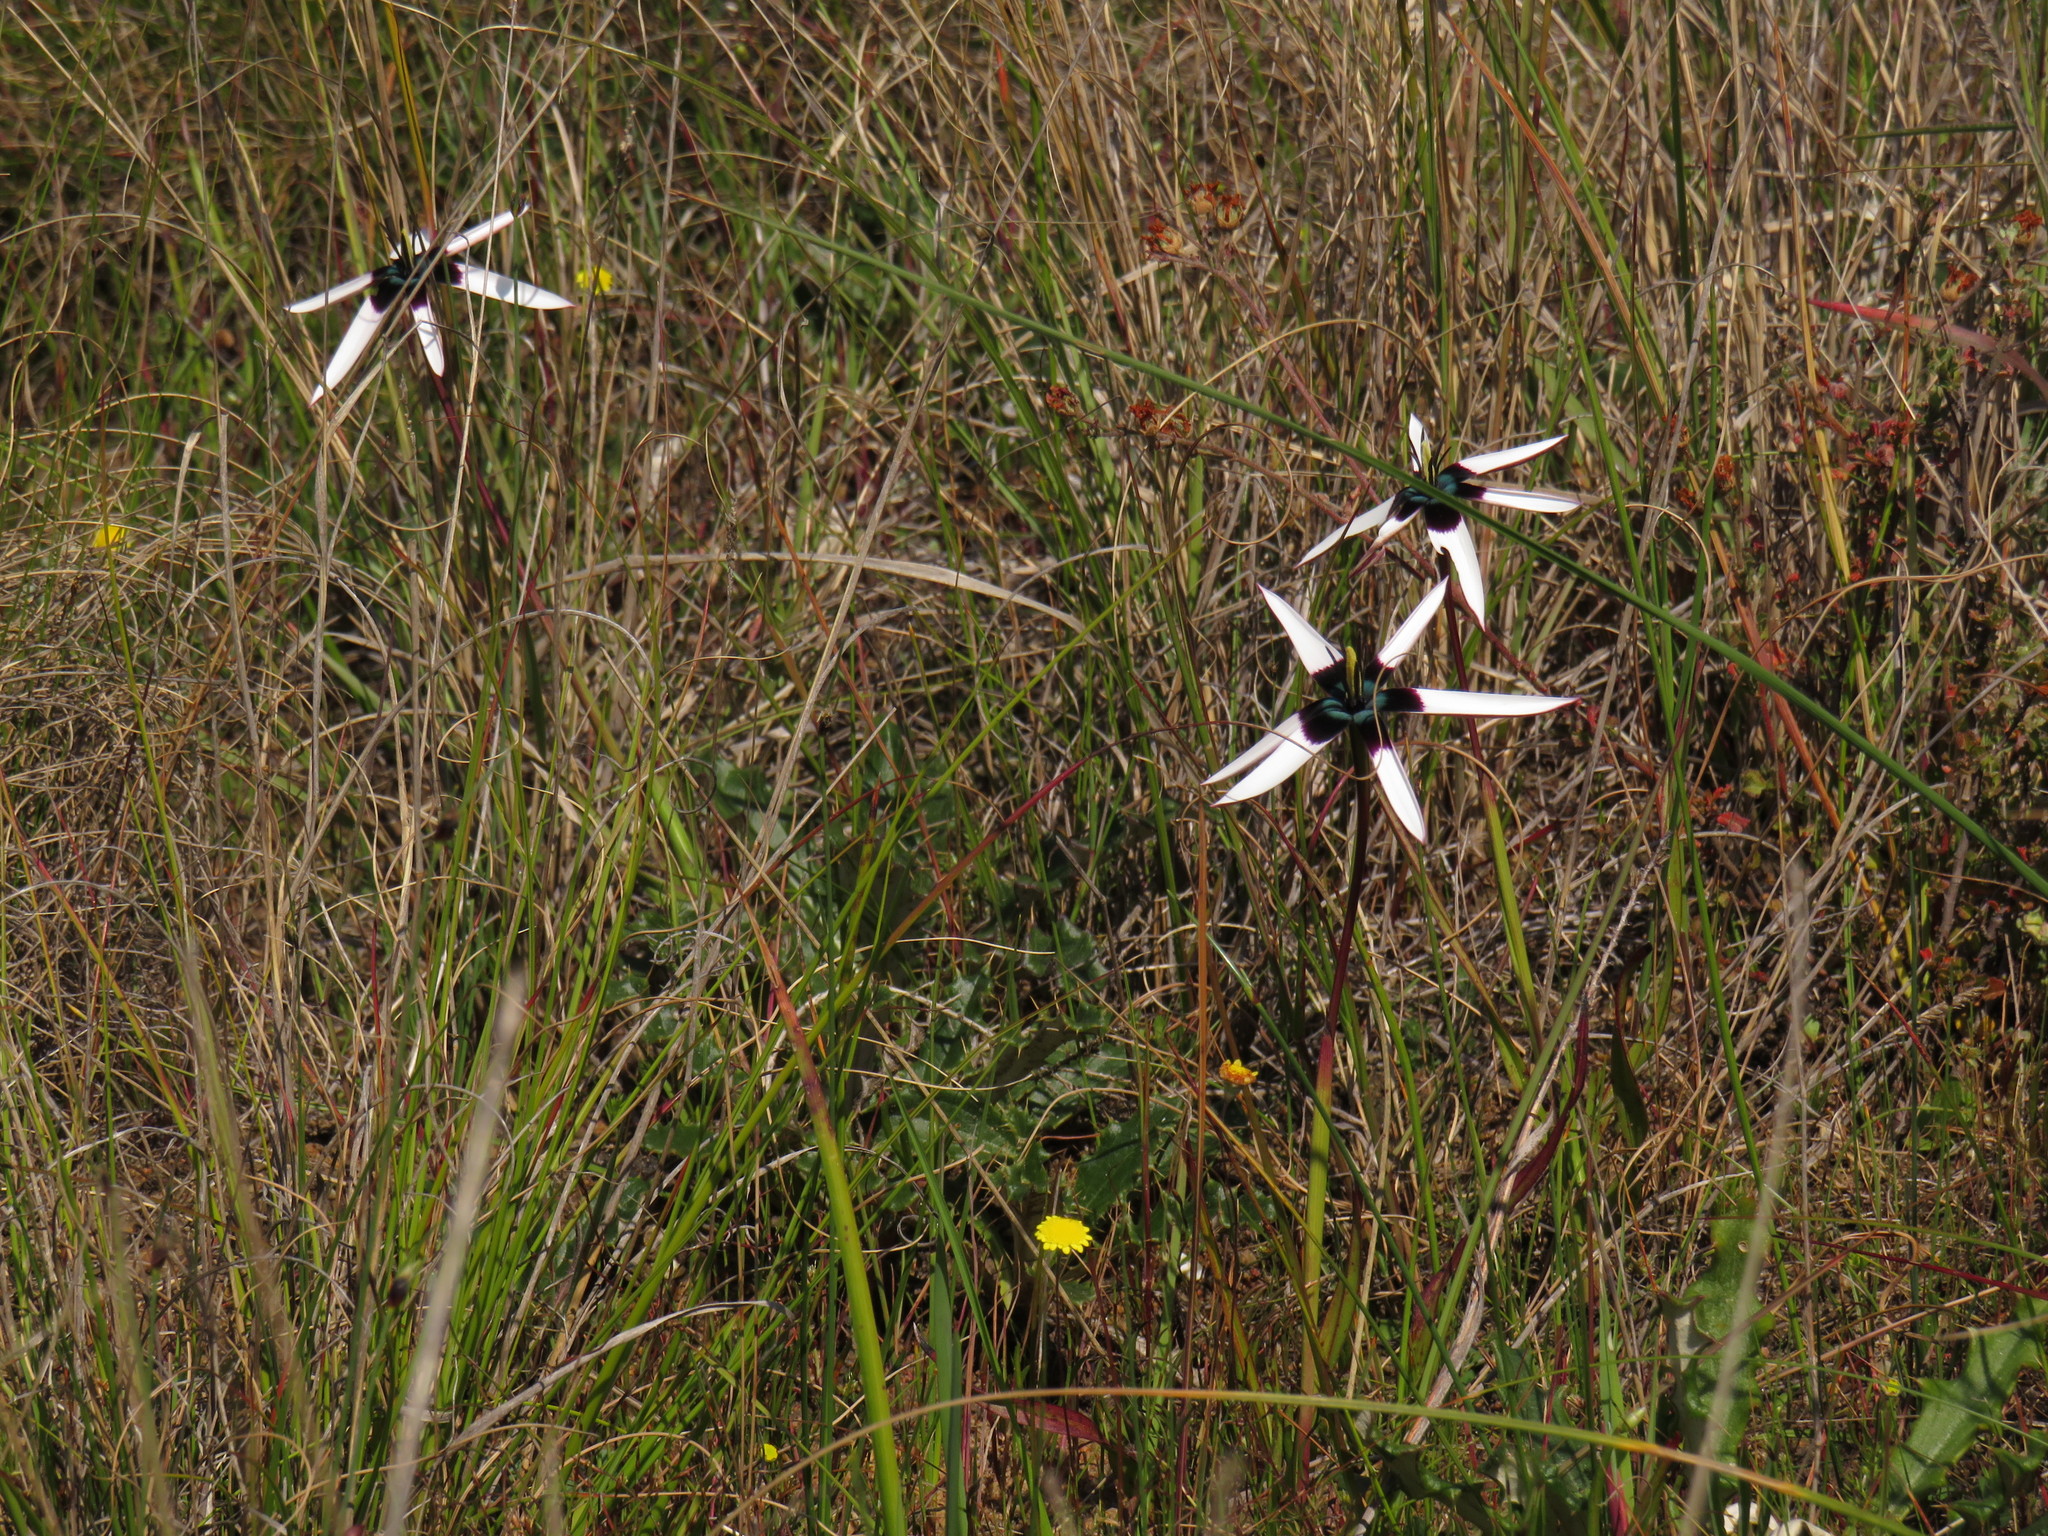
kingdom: Plantae
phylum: Tracheophyta
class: Liliopsida
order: Asparagales
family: Hypoxidaceae
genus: Pauridia
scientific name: Pauridia capensis
